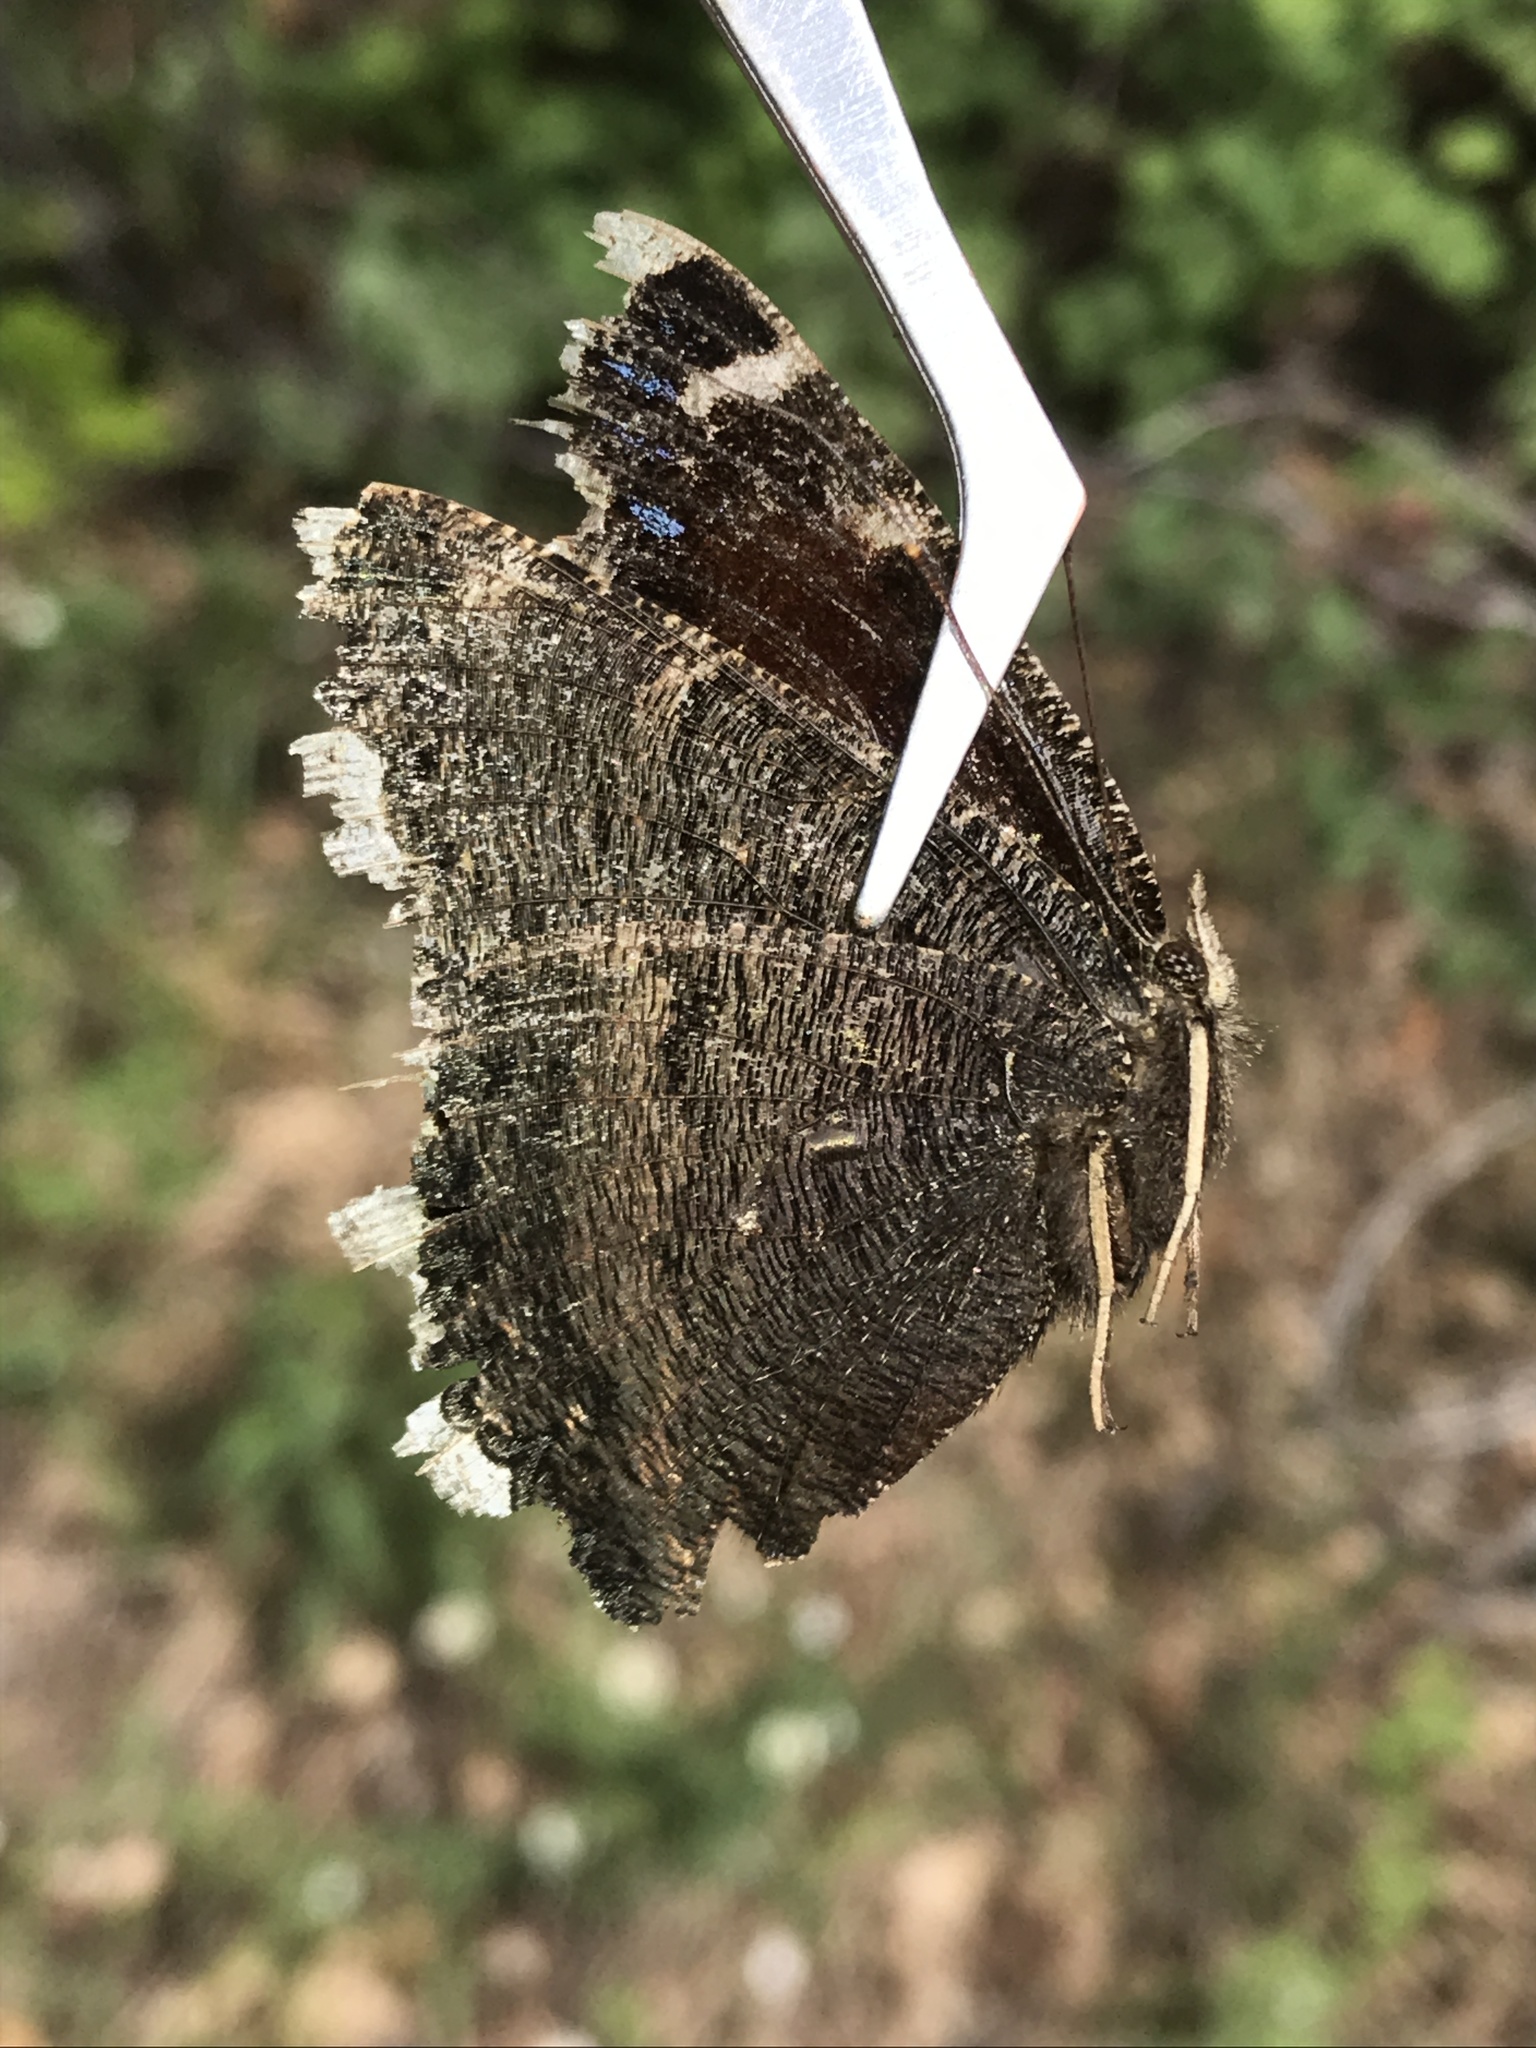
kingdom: Animalia
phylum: Arthropoda
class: Insecta
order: Lepidoptera
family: Nymphalidae
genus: Nymphalis
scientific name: Nymphalis antiopa
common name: Camberwell beauty
